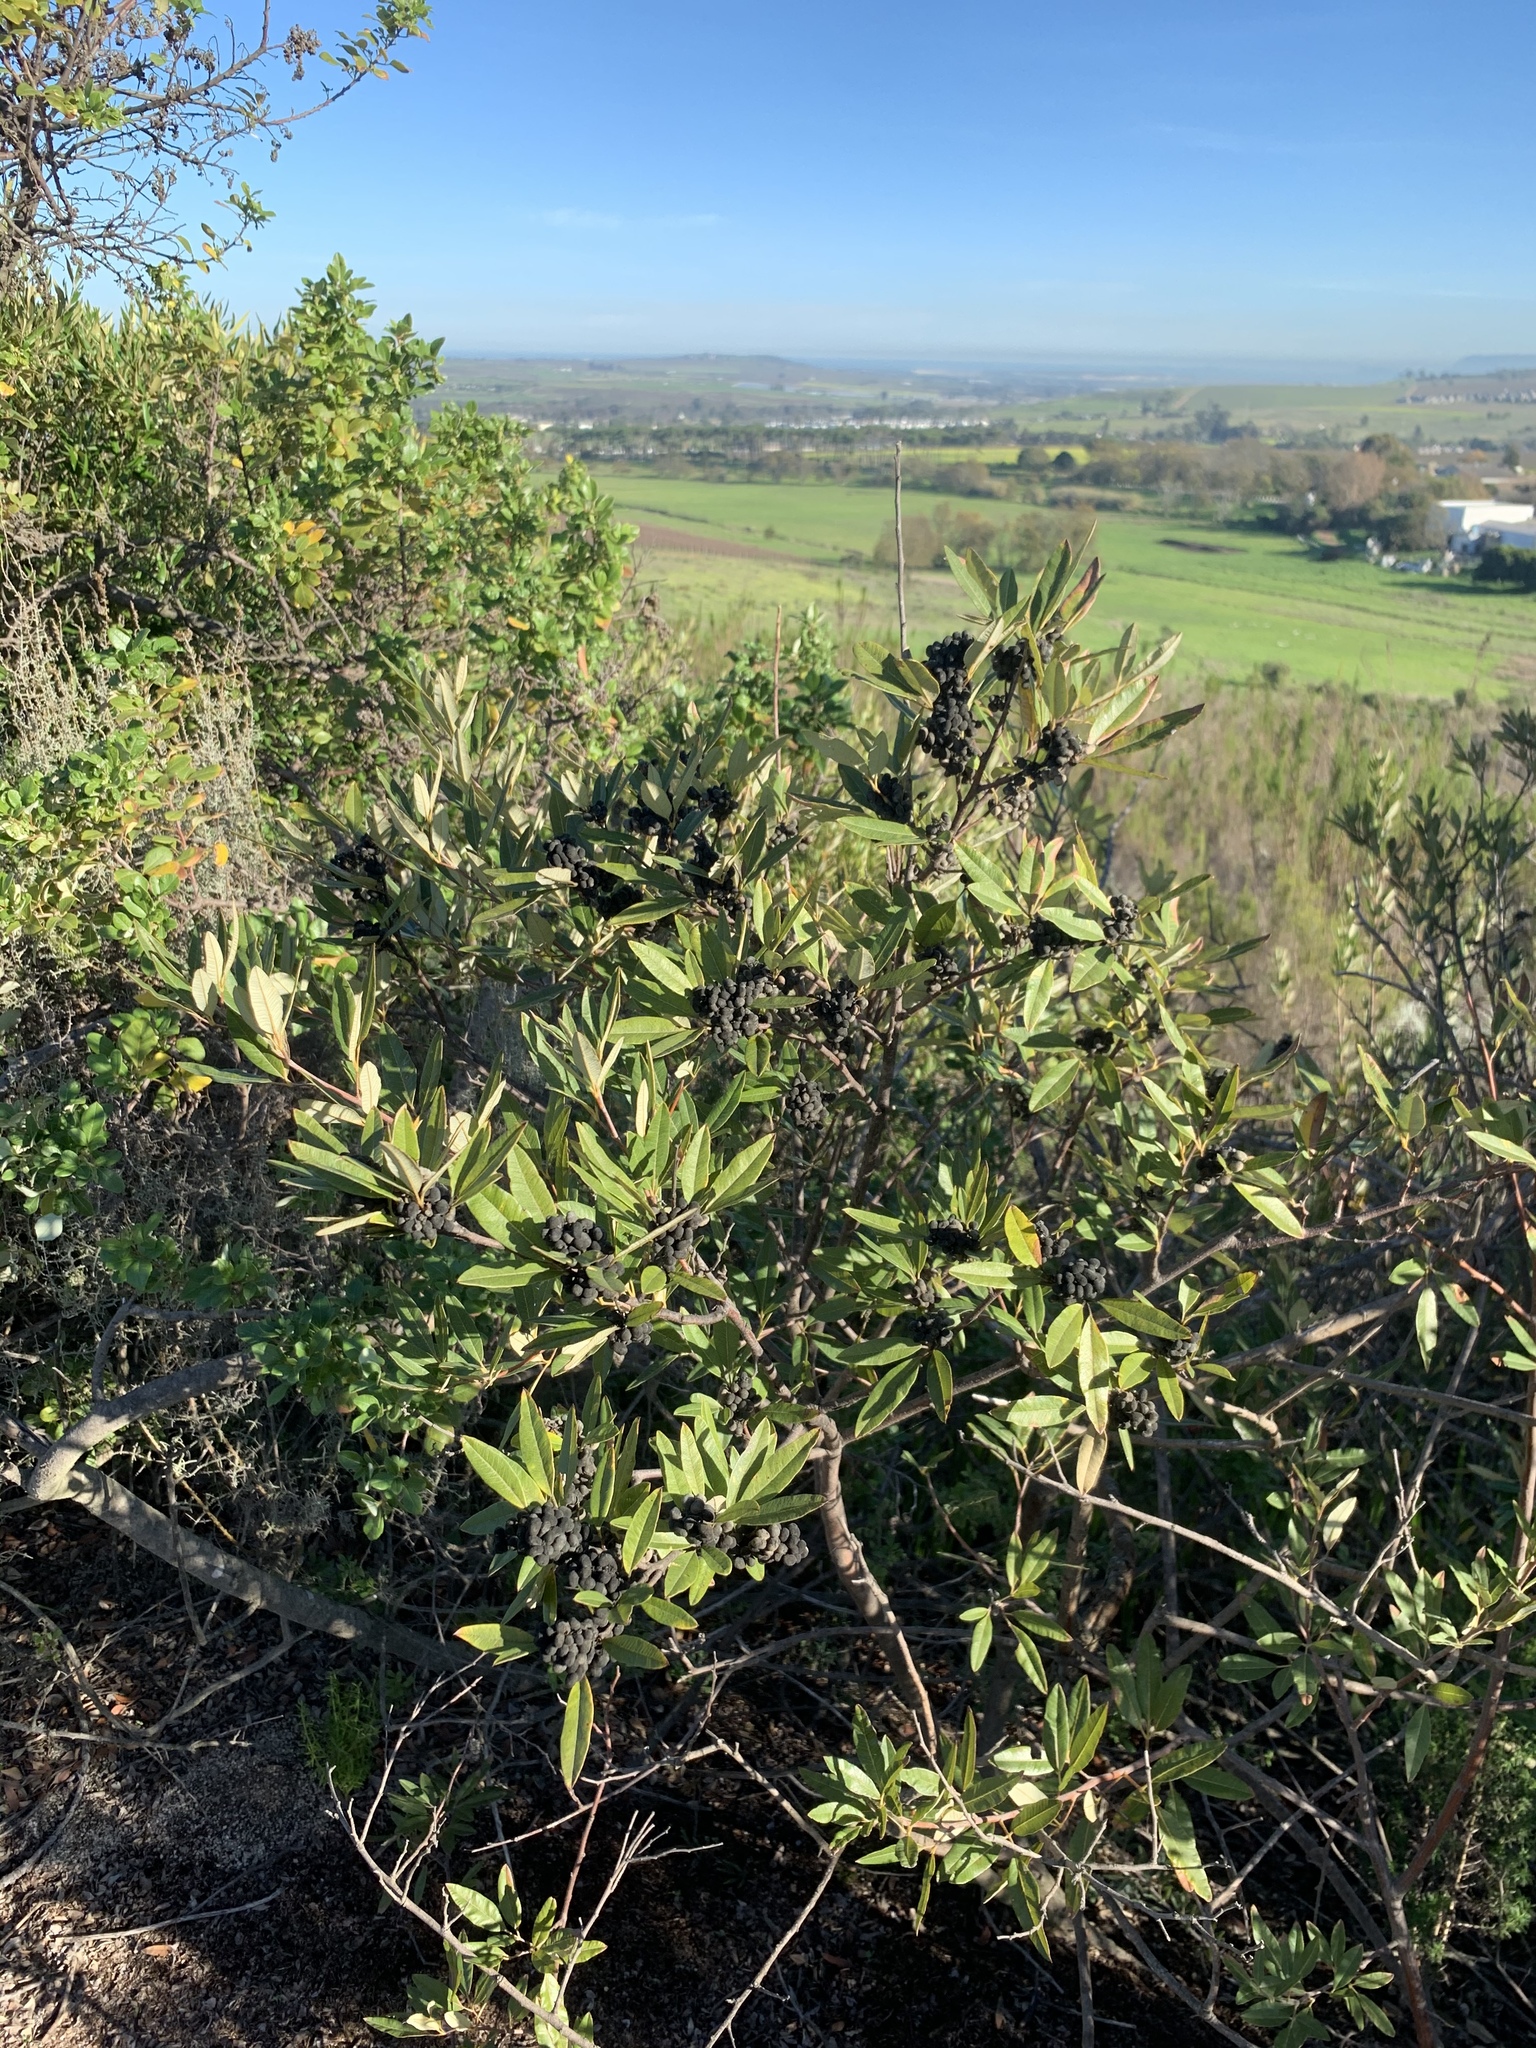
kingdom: Plantae
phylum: Tracheophyta
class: Magnoliopsida
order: Sapindales
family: Anacardiaceae
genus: Searsia
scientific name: Searsia angustifolia
